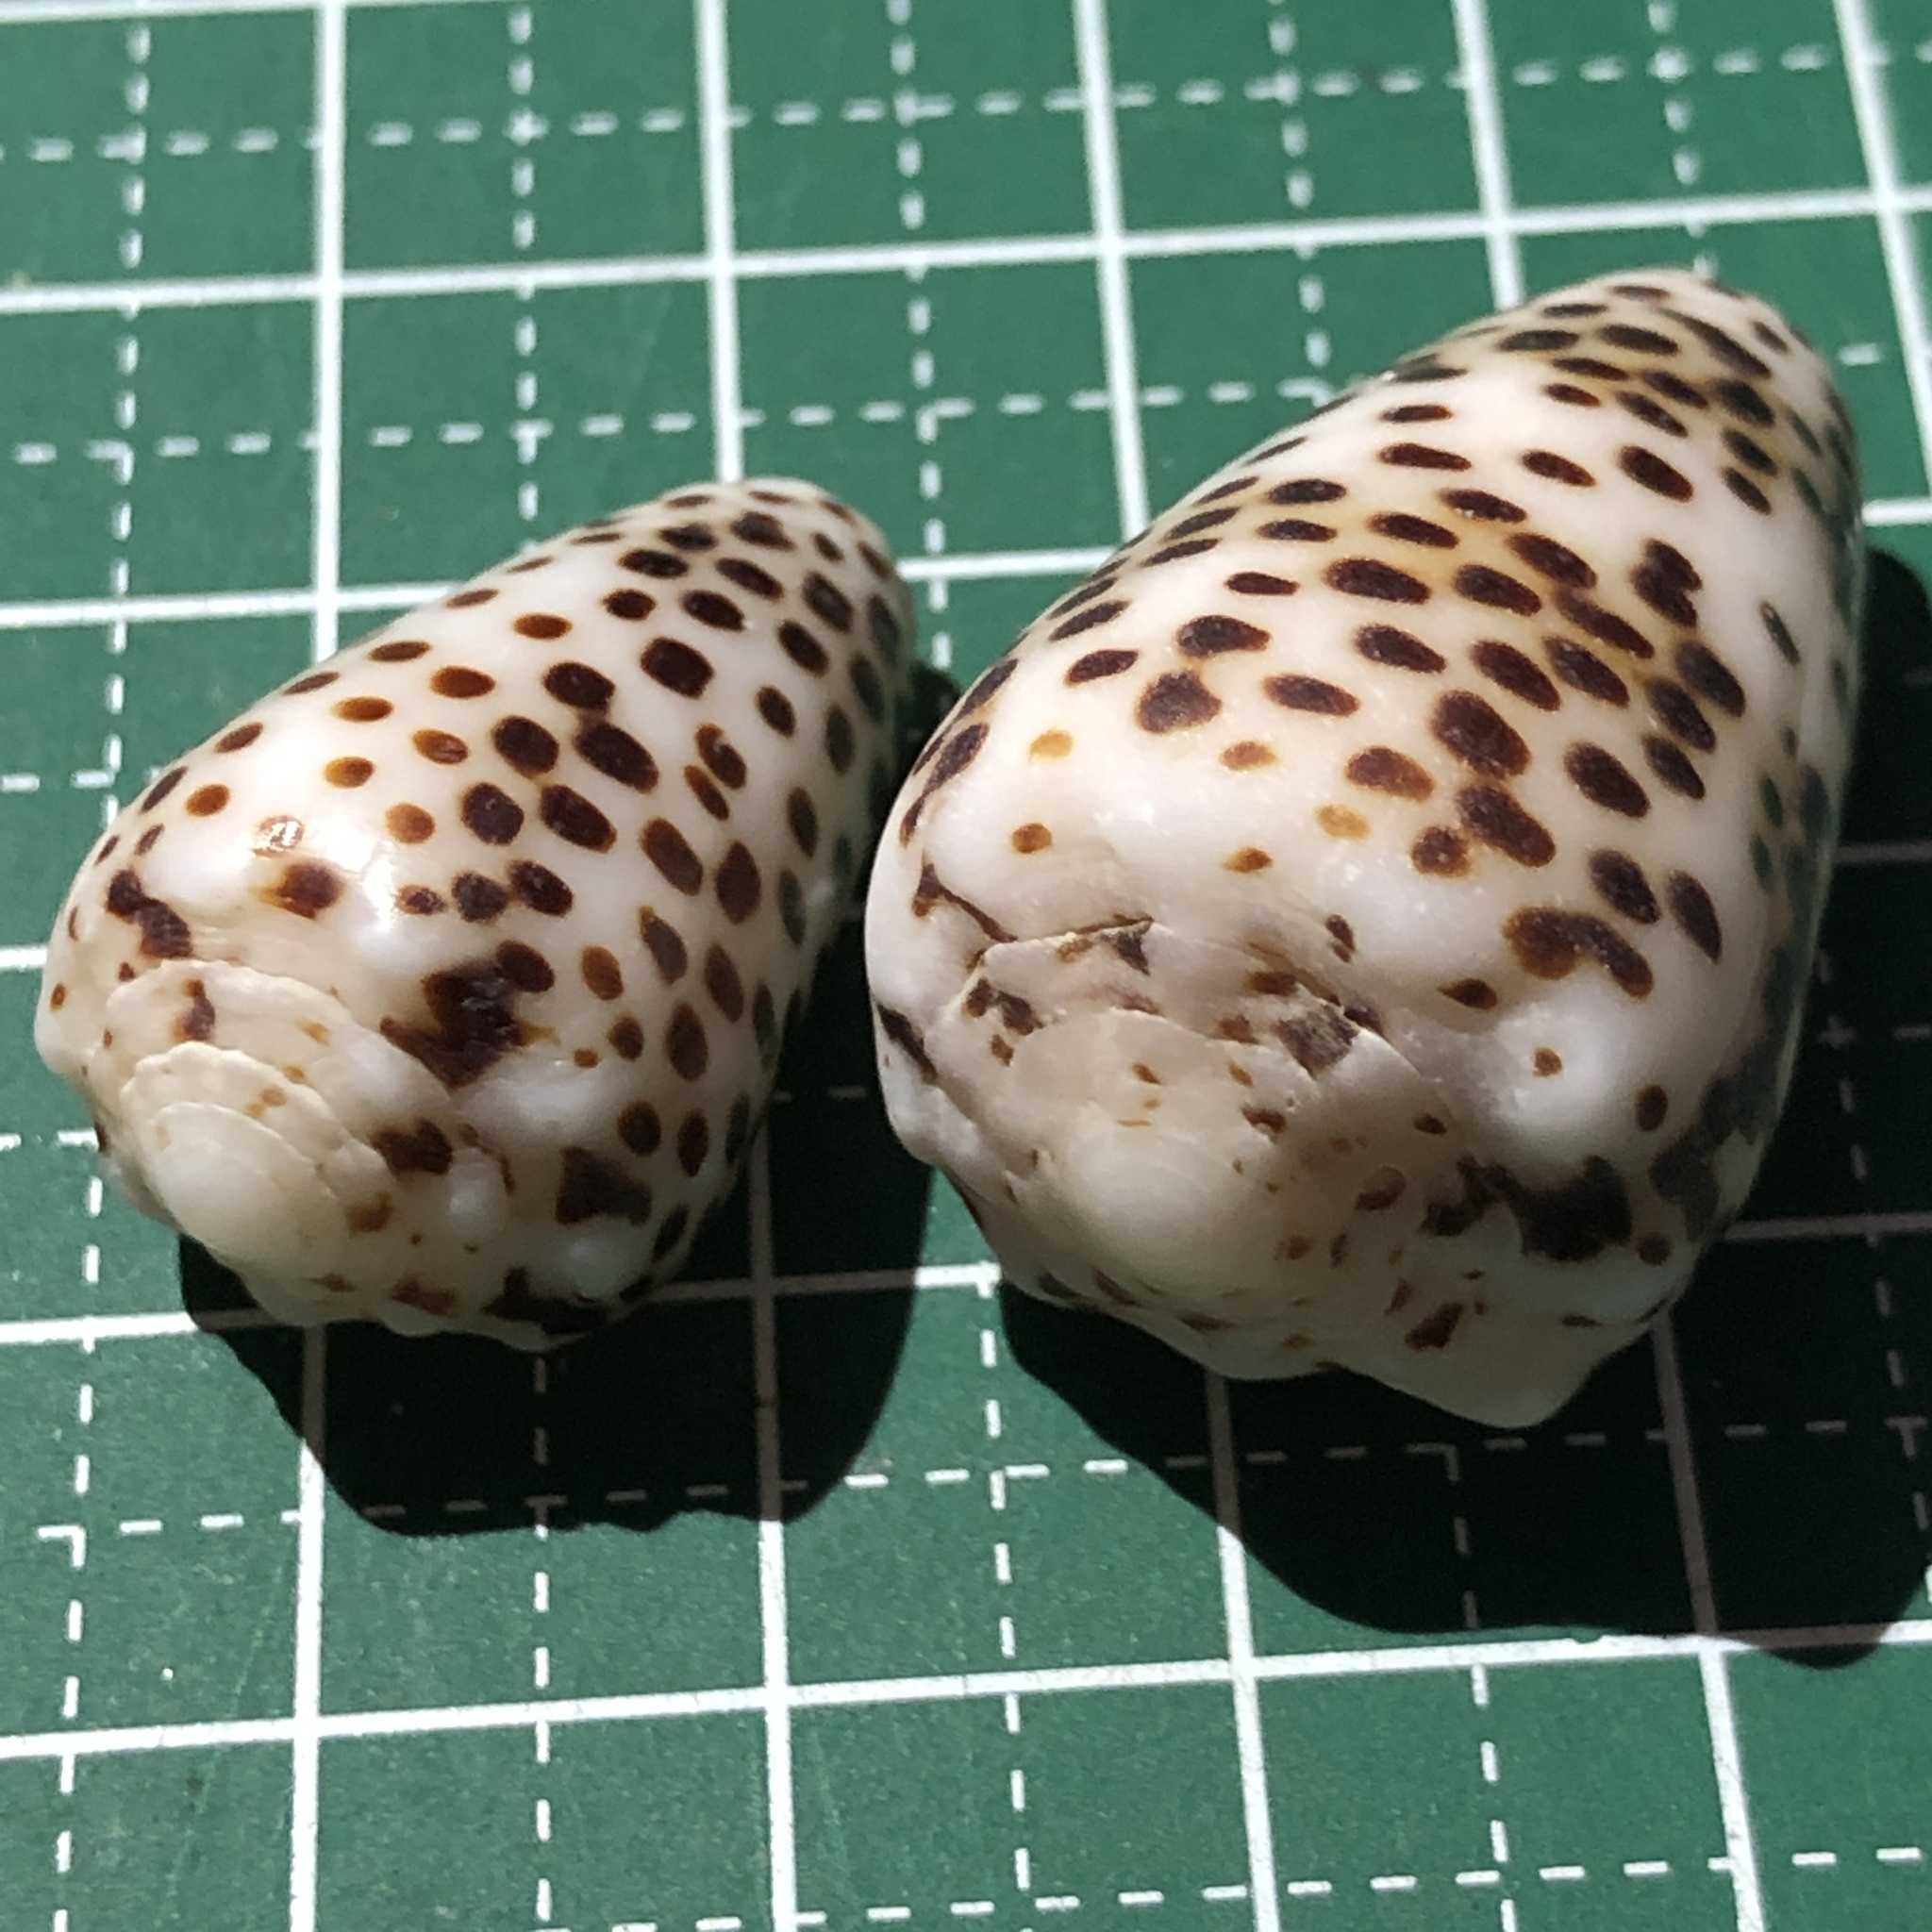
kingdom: Animalia
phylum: Mollusca
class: Gastropoda
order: Neogastropoda
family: Conidae
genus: Conus
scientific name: Conus pulicarius
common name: Flea-bite cone
